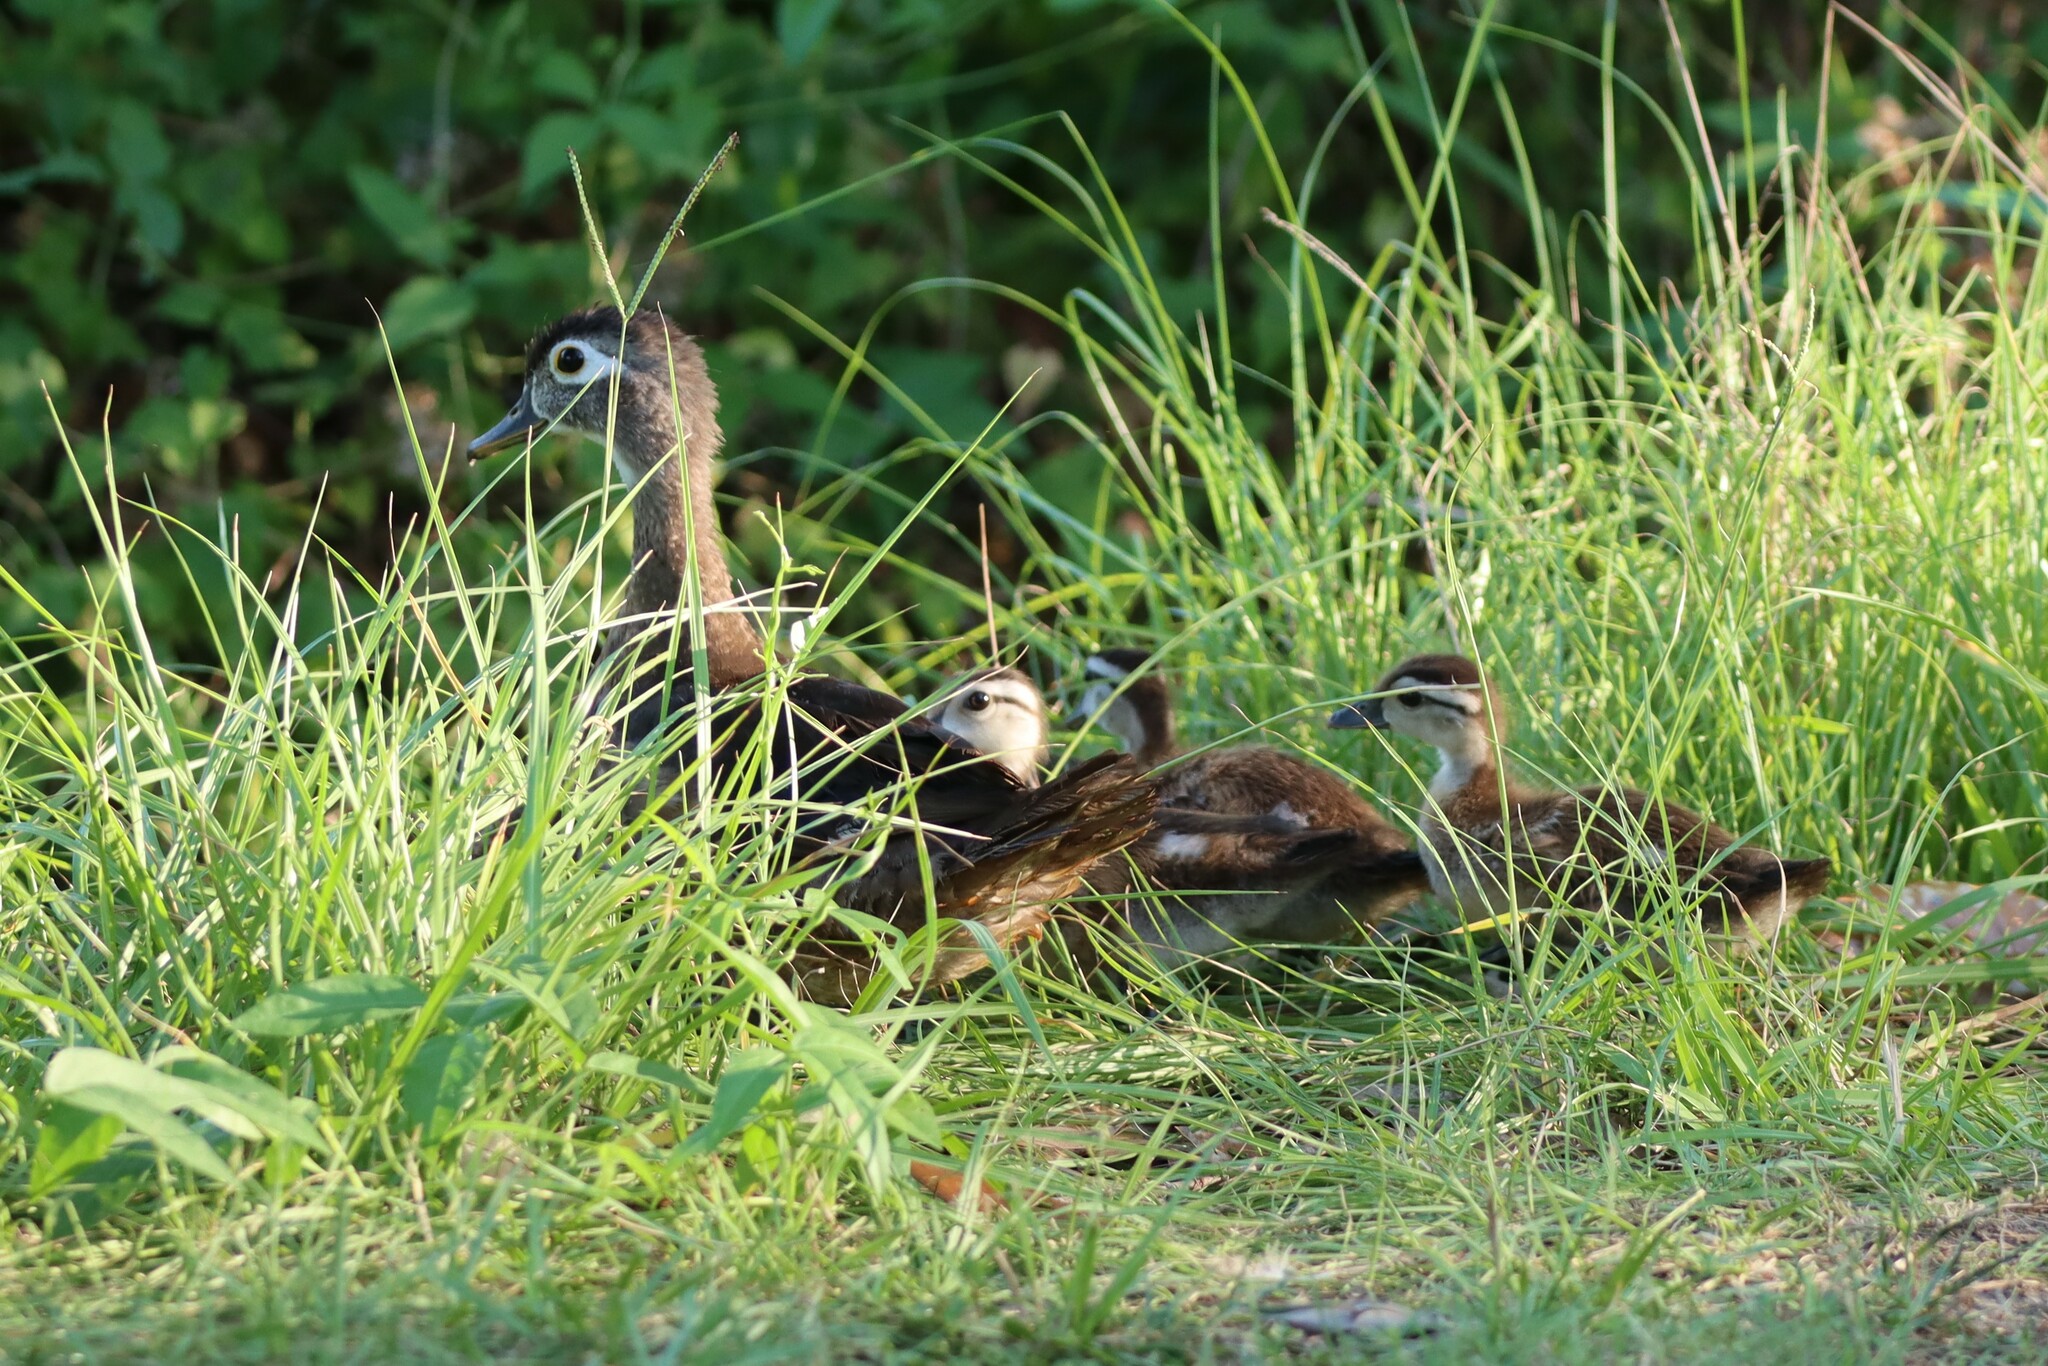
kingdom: Animalia
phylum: Chordata
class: Aves
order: Anseriformes
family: Anatidae
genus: Aix
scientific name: Aix sponsa
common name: Wood duck
